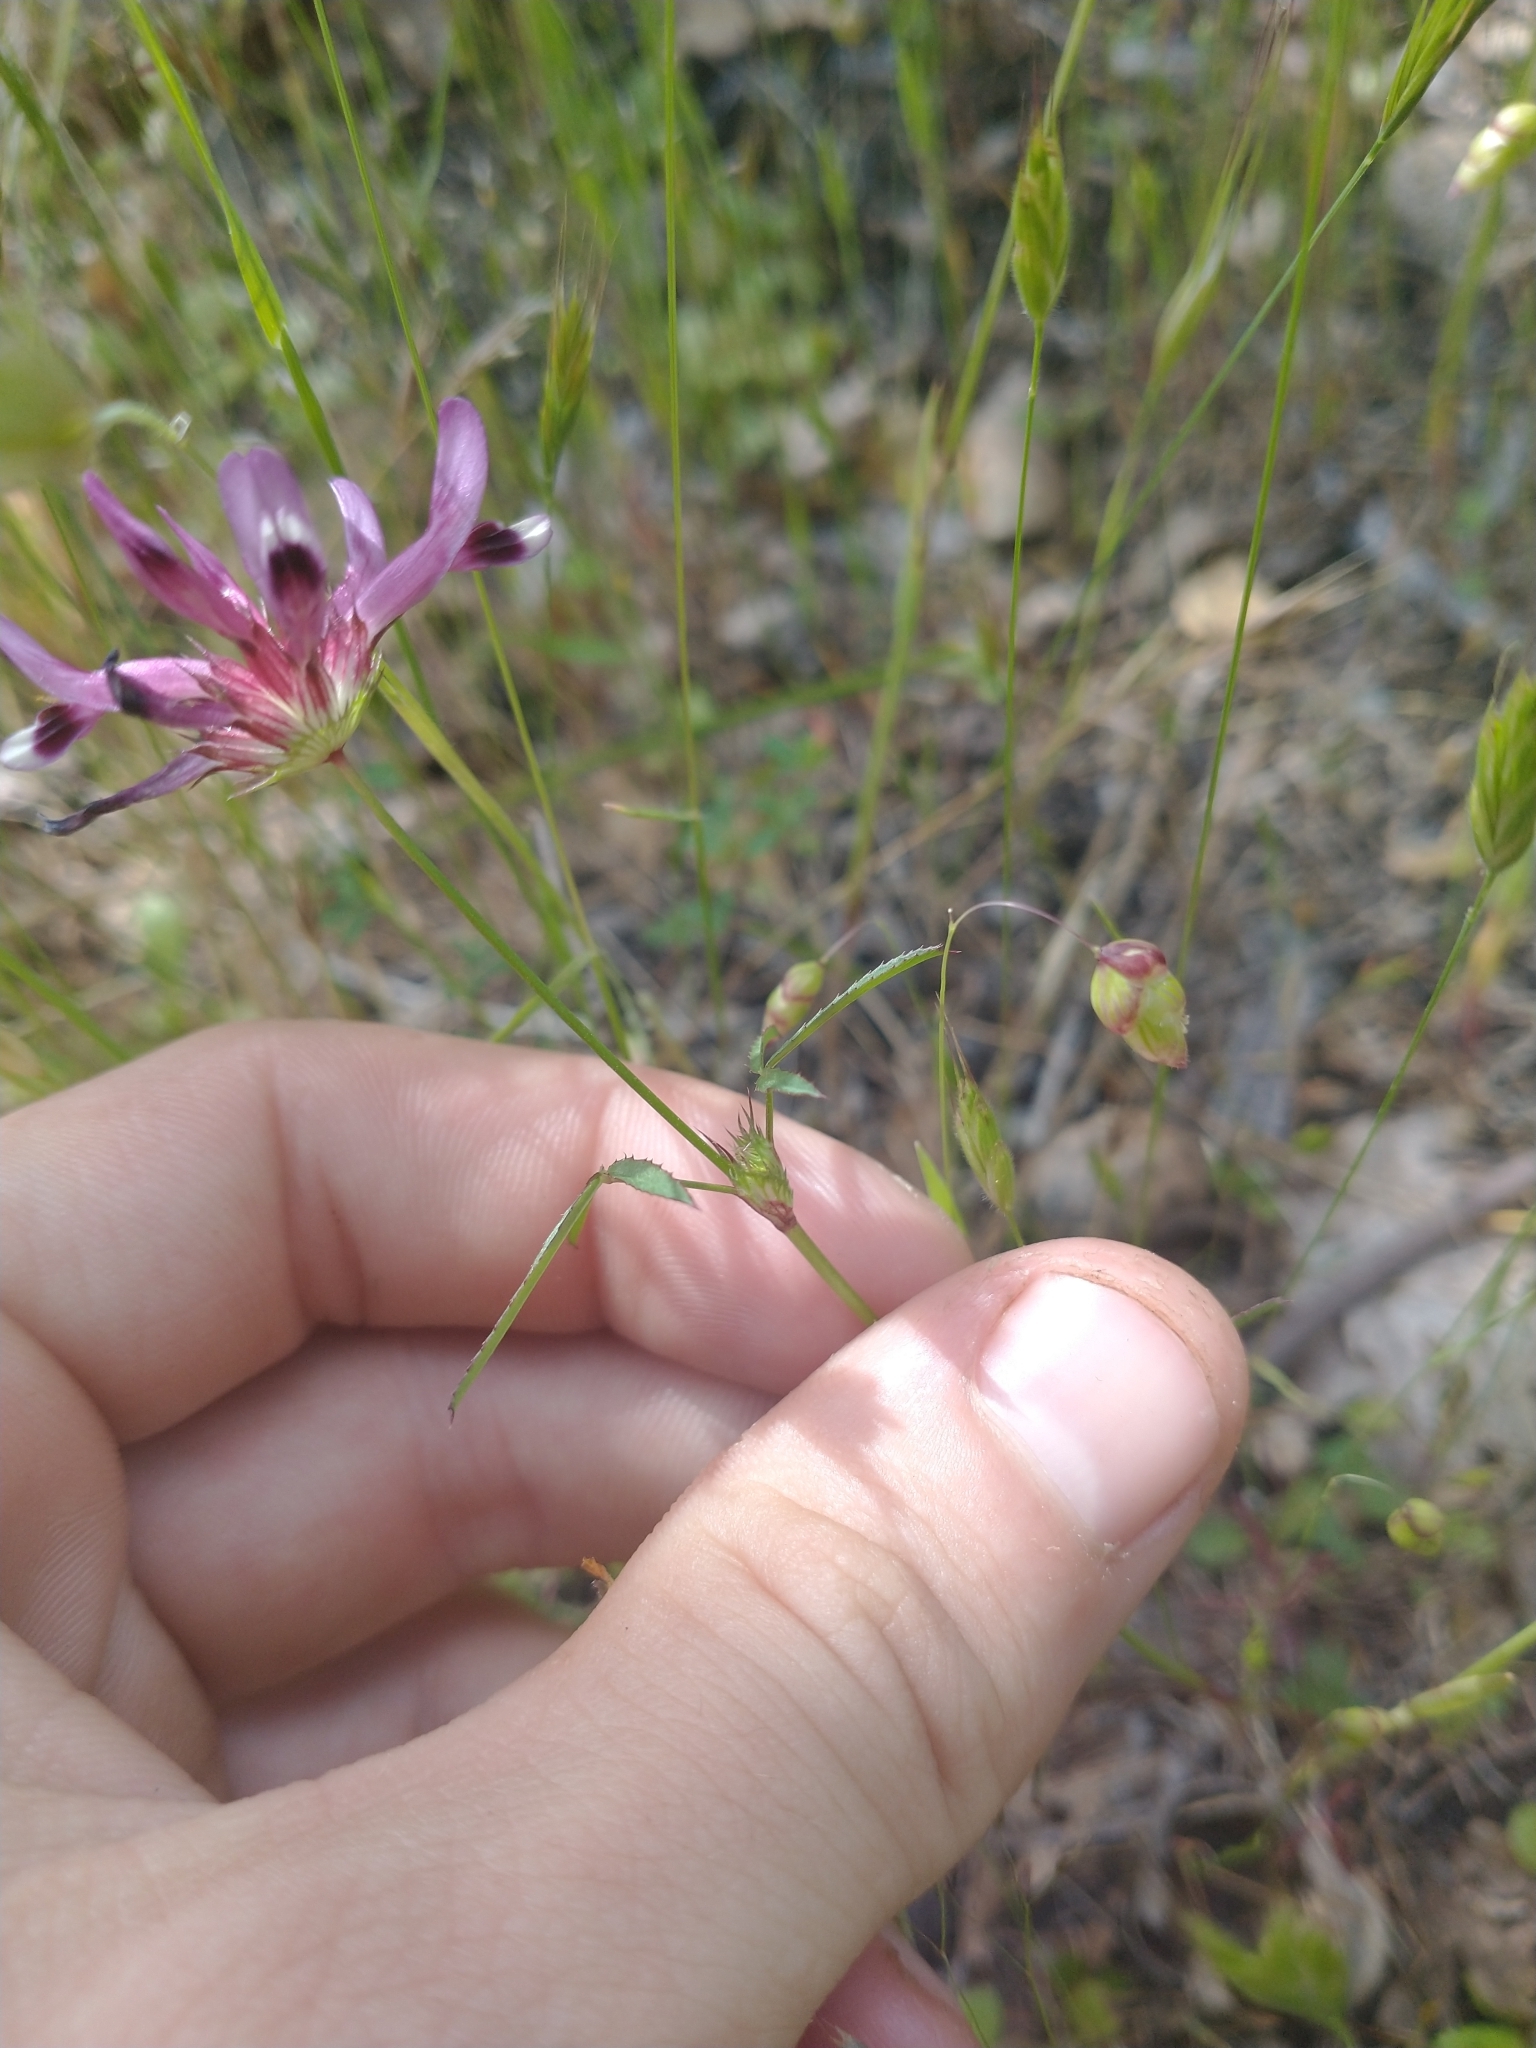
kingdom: Plantae
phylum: Tracheophyta
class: Magnoliopsida
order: Fabales
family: Fabaceae
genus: Trifolium
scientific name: Trifolium willdenovii
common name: Tomcat clover
